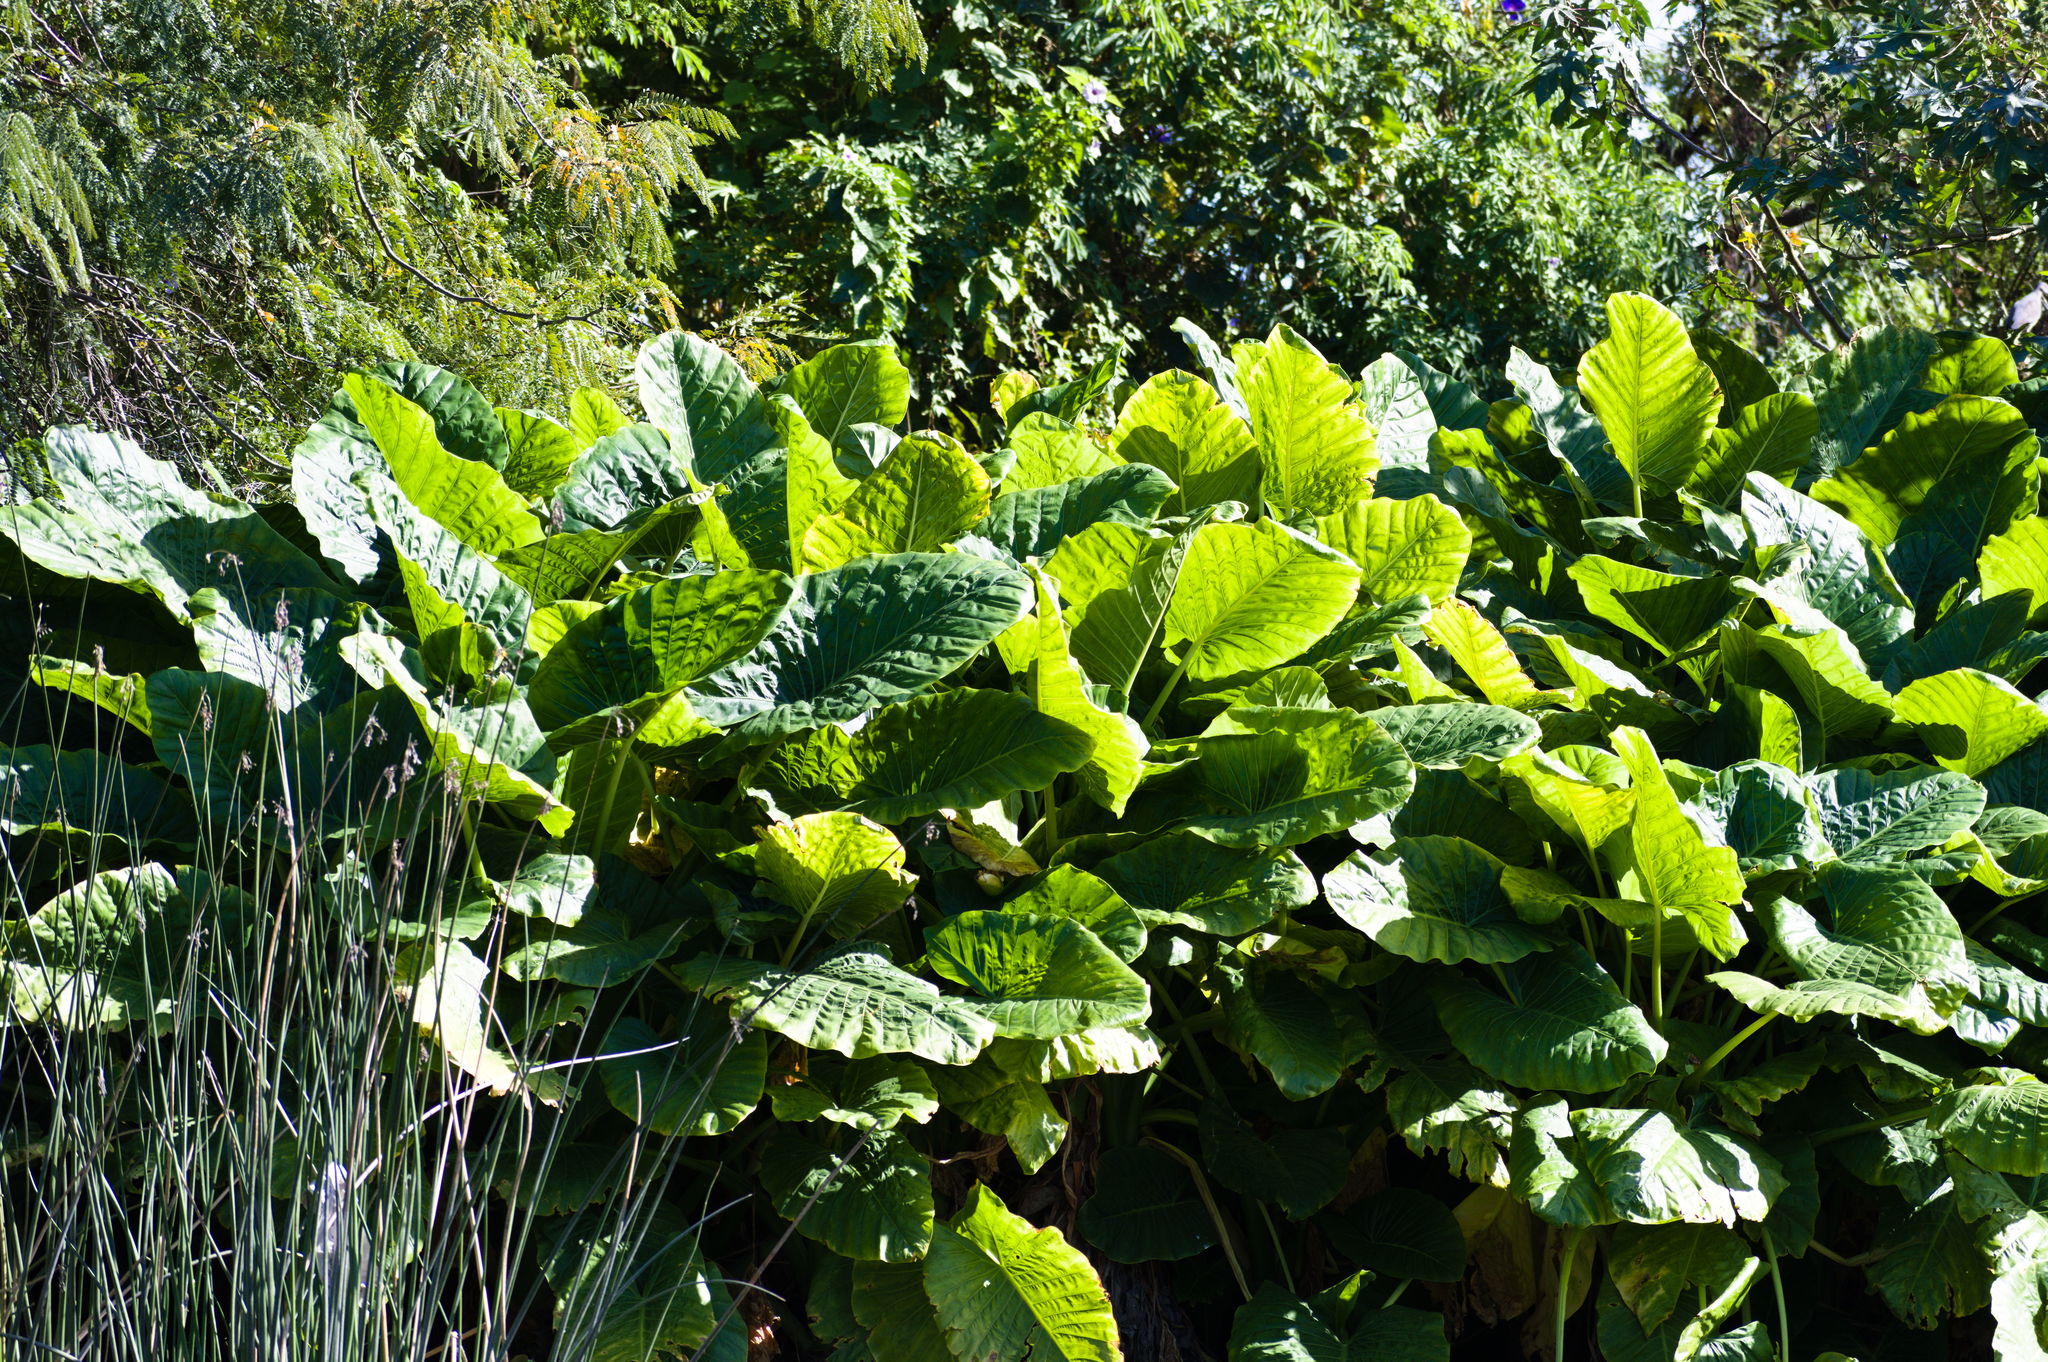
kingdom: Plantae
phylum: Tracheophyta
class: Liliopsida
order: Alismatales
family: Araceae
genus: Alocasia
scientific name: Alocasia macrorrhizos
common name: Giant taro
